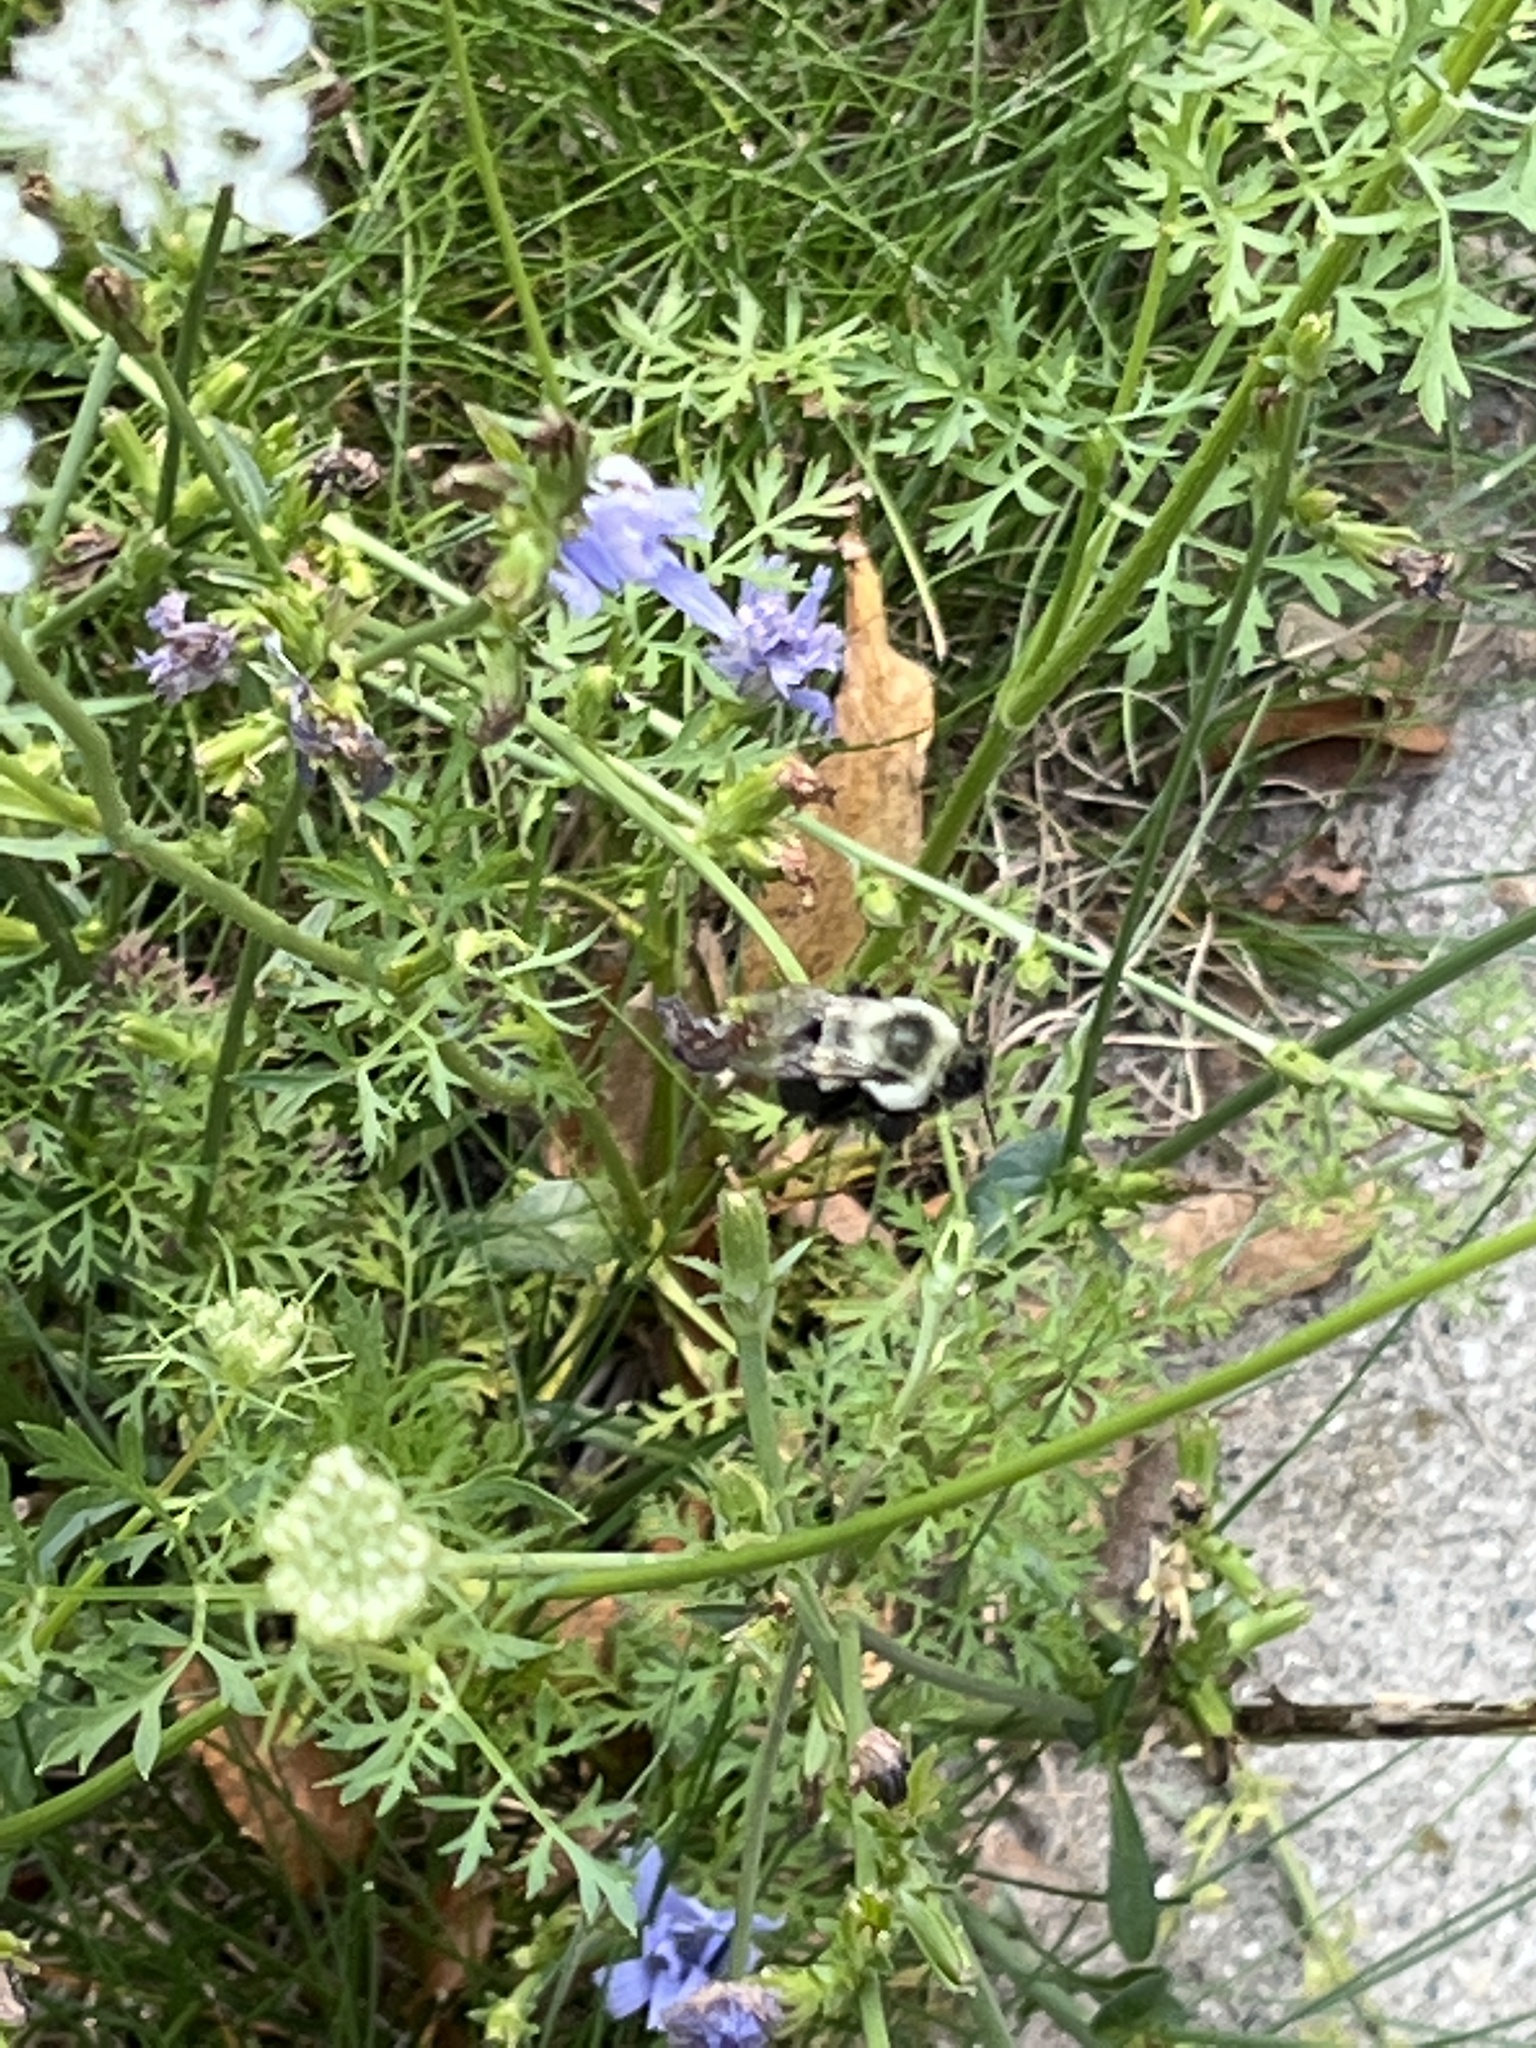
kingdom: Animalia
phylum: Arthropoda
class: Insecta
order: Hymenoptera
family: Apidae
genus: Bombus
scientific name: Bombus impatiens
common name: Common eastern bumble bee
